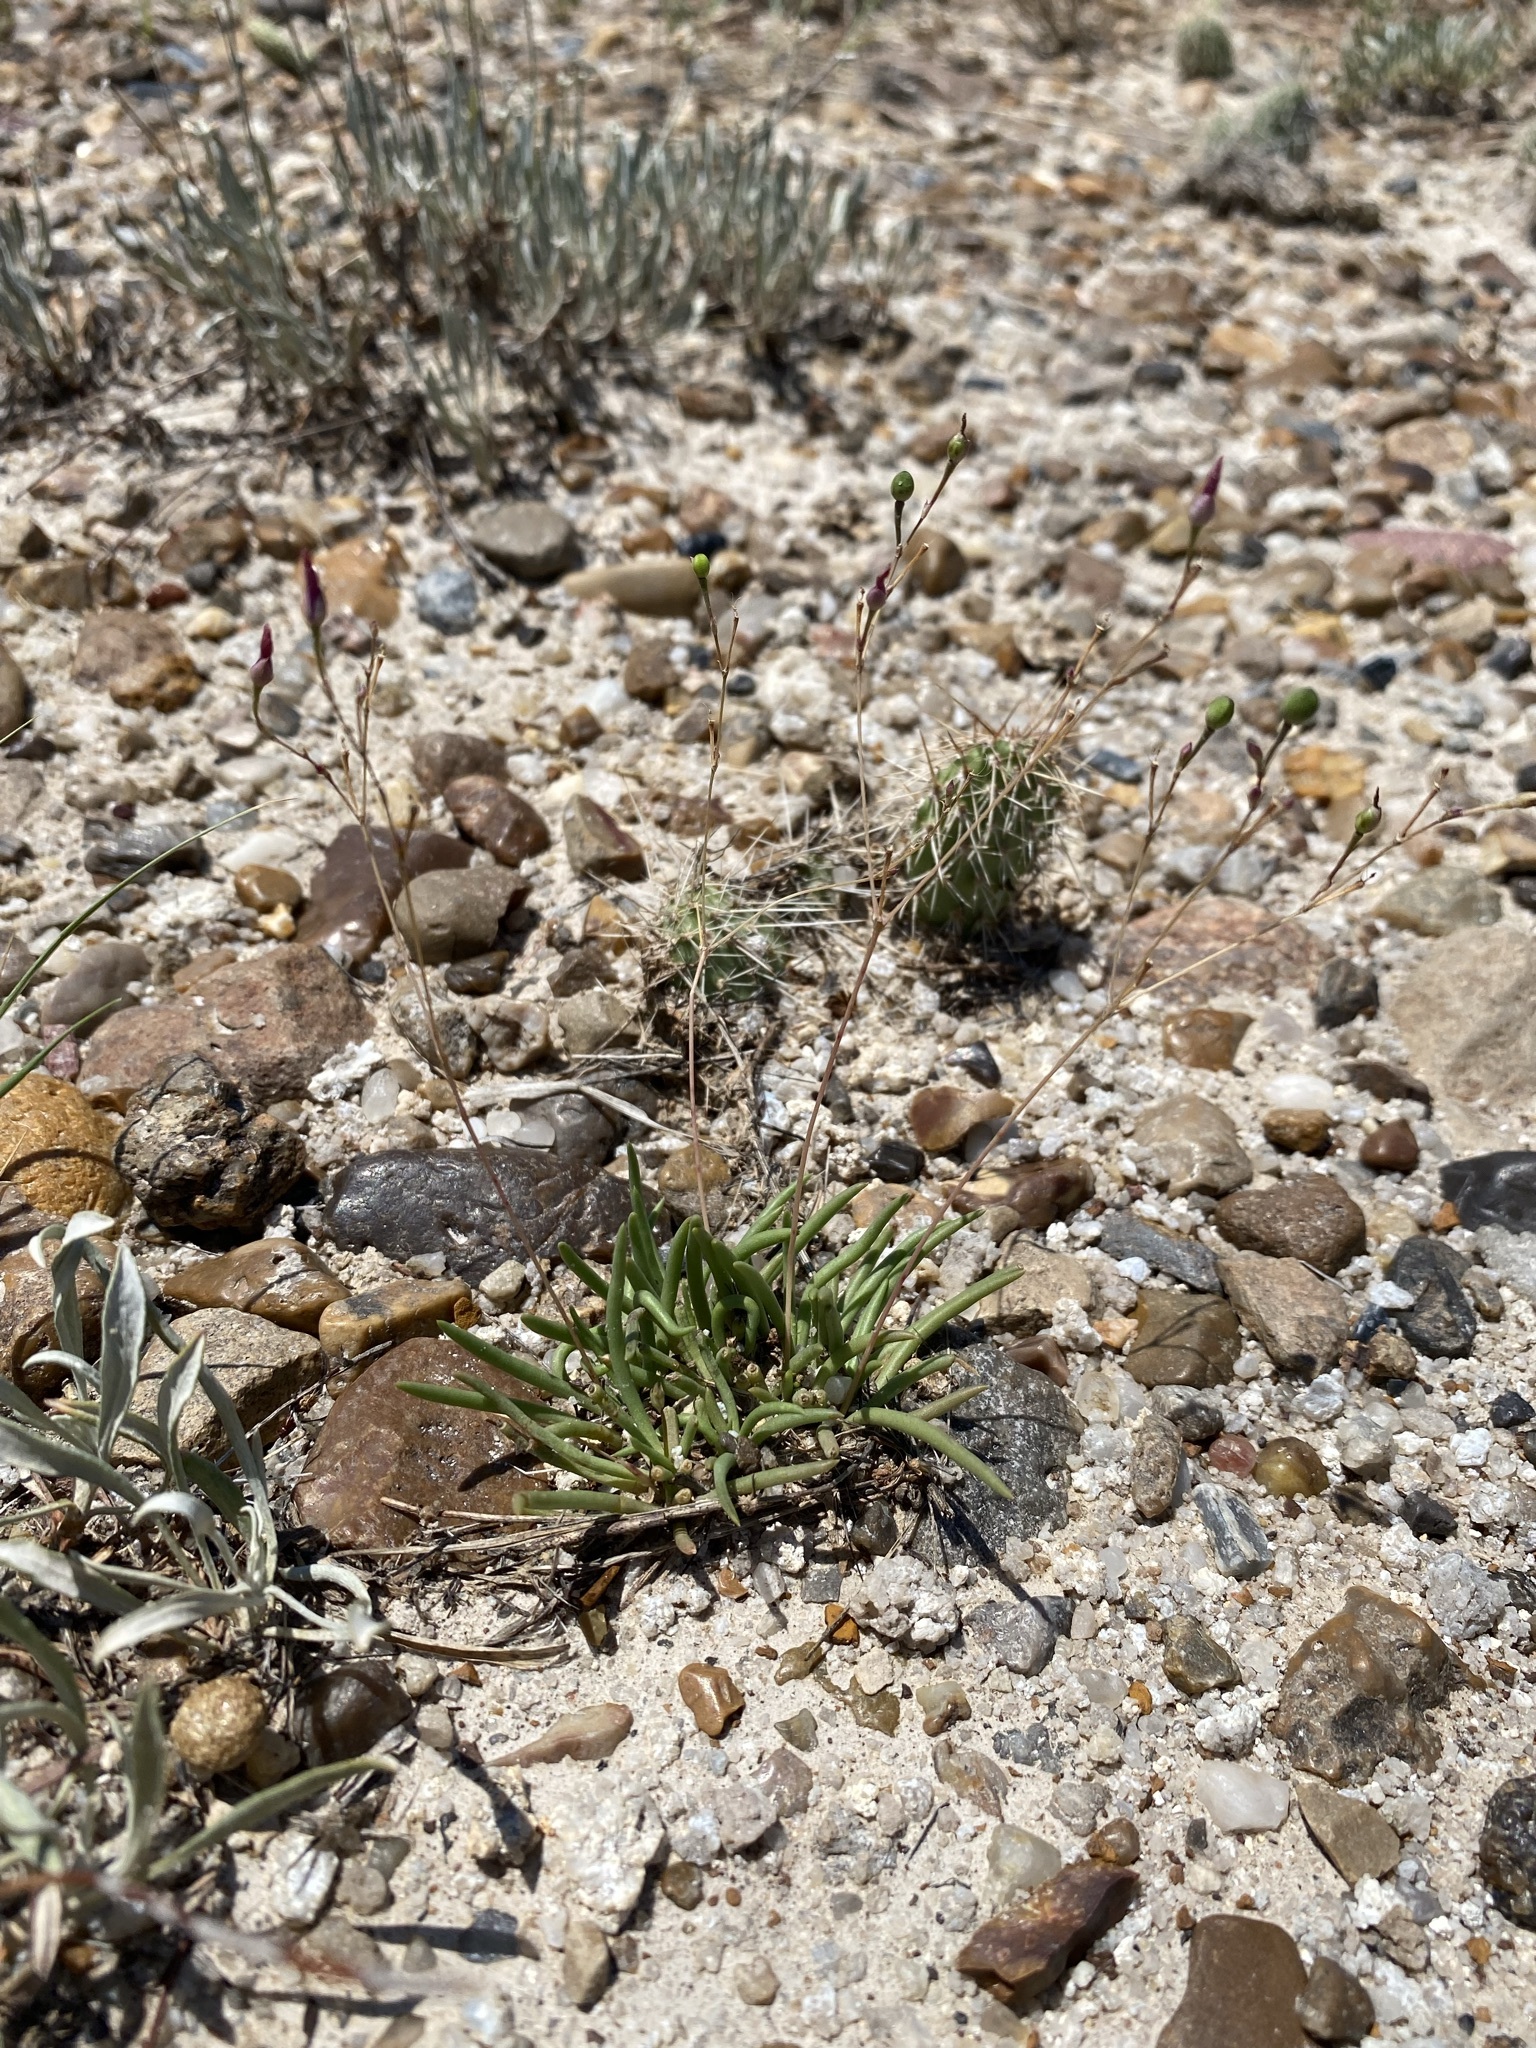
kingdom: Plantae
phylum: Tracheophyta
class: Magnoliopsida
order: Caryophyllales
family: Montiaceae
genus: Phemeranthus
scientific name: Phemeranthus parviflorus
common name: Sunbright
